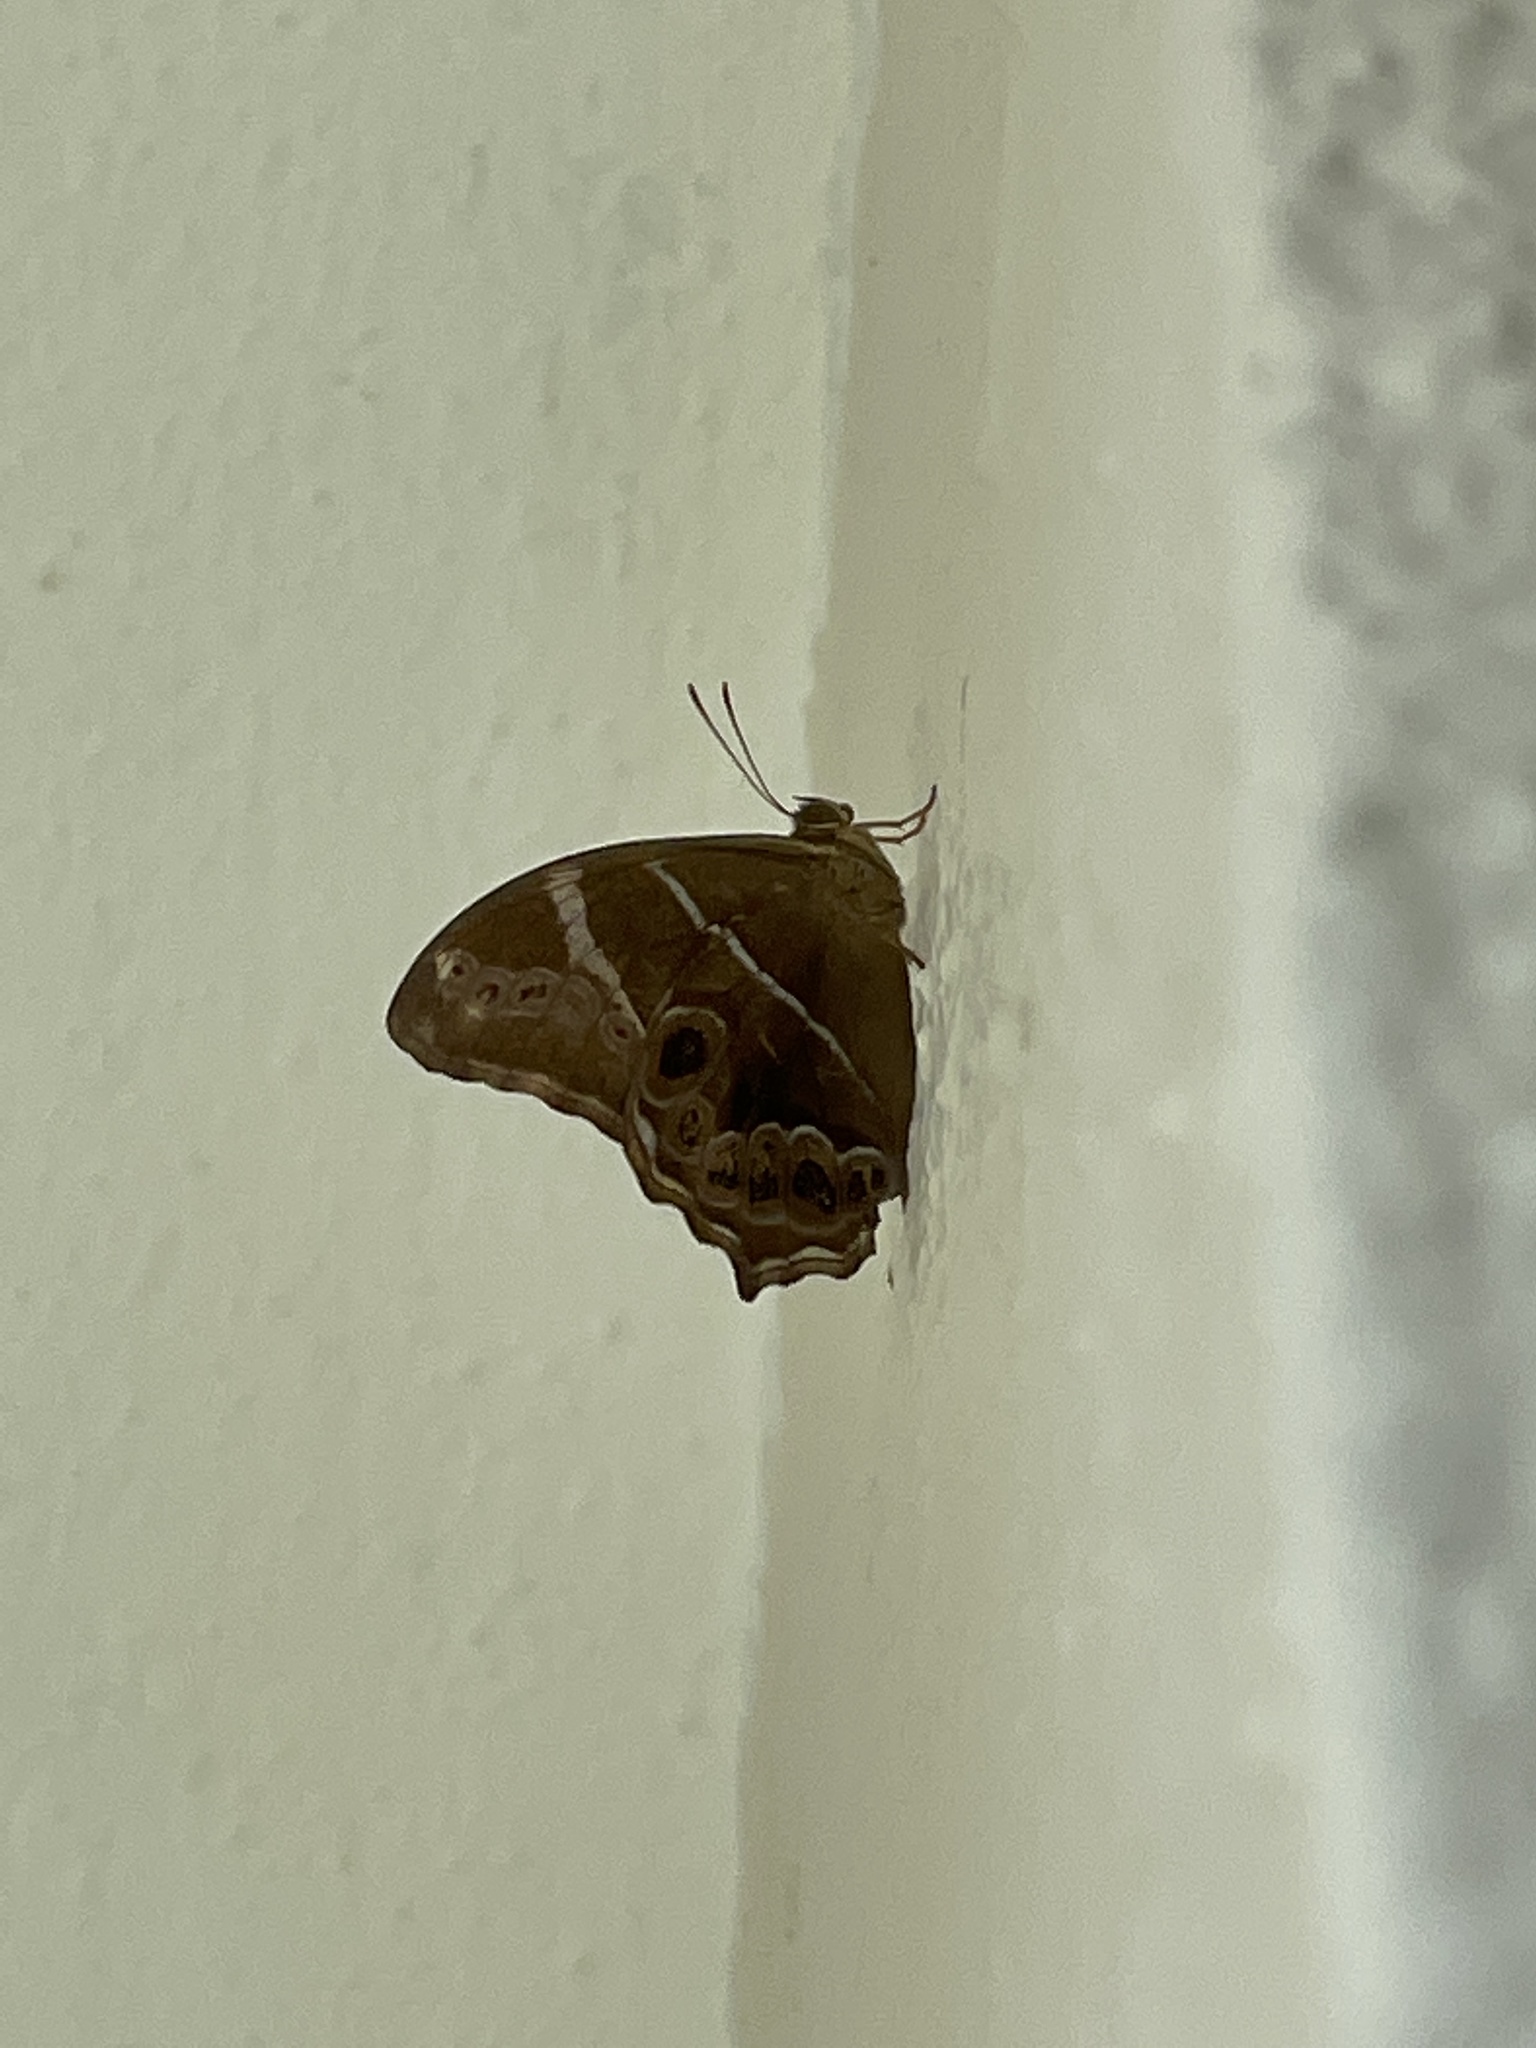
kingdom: Animalia
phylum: Arthropoda
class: Insecta
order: Lepidoptera
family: Nymphalidae
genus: Lethe
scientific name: Lethe europa
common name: Bamboo treebrown
